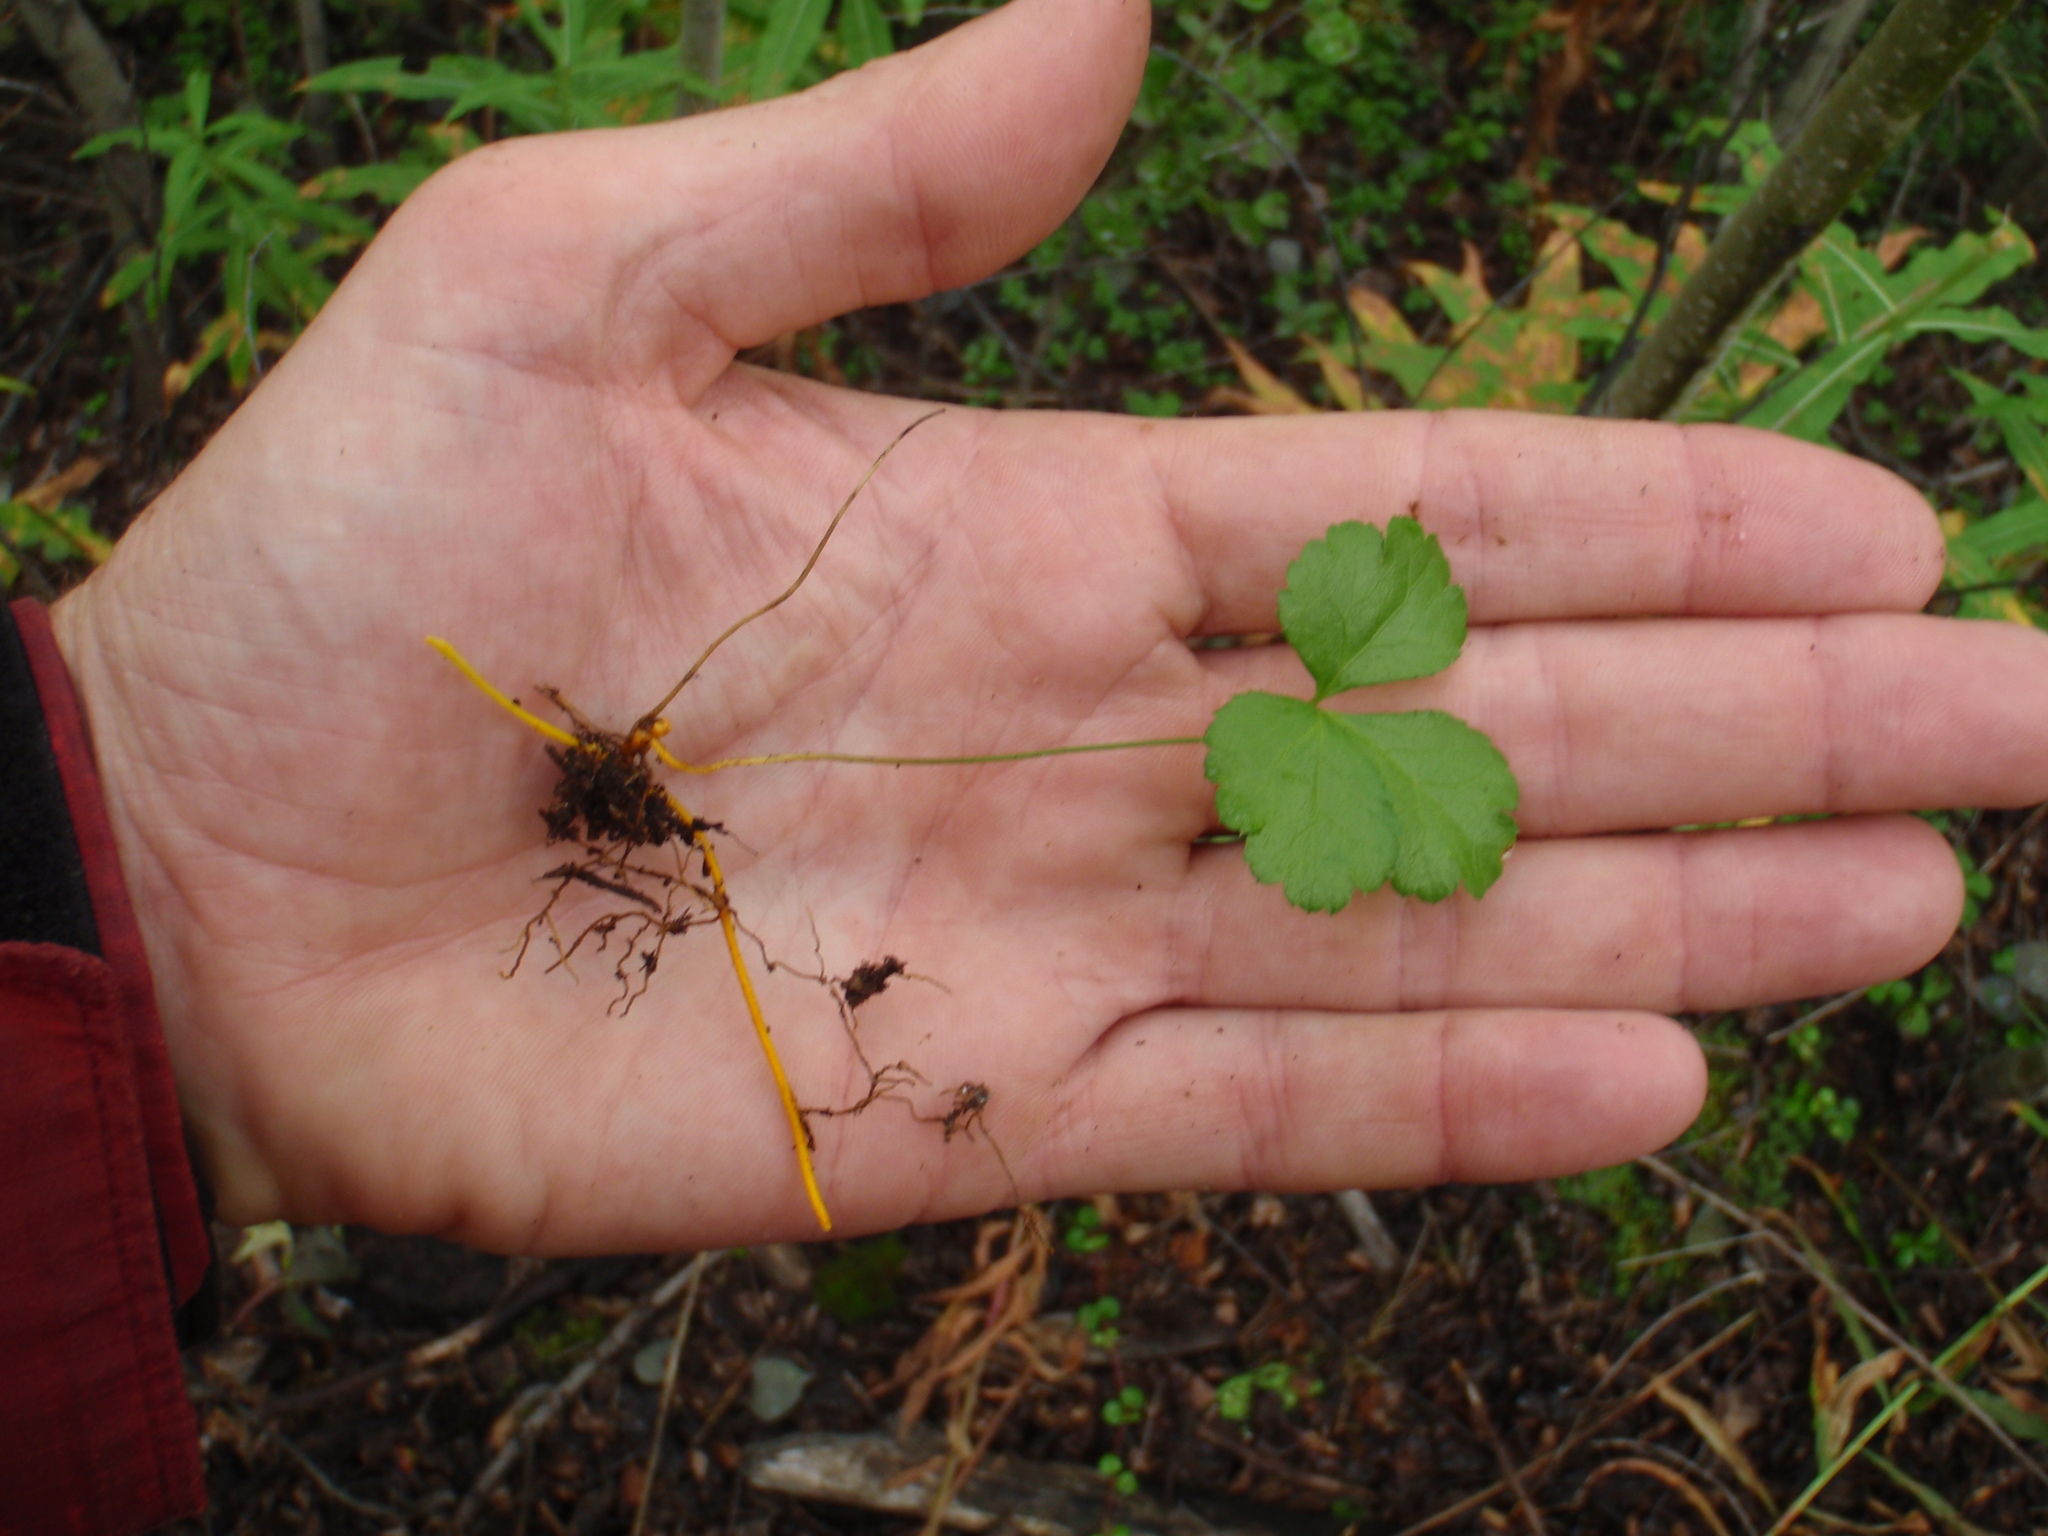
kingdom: Plantae
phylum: Tracheophyta
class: Magnoliopsida
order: Ranunculales
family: Ranunculaceae
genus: Coptis
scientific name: Coptis trifolia
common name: Canker-root
